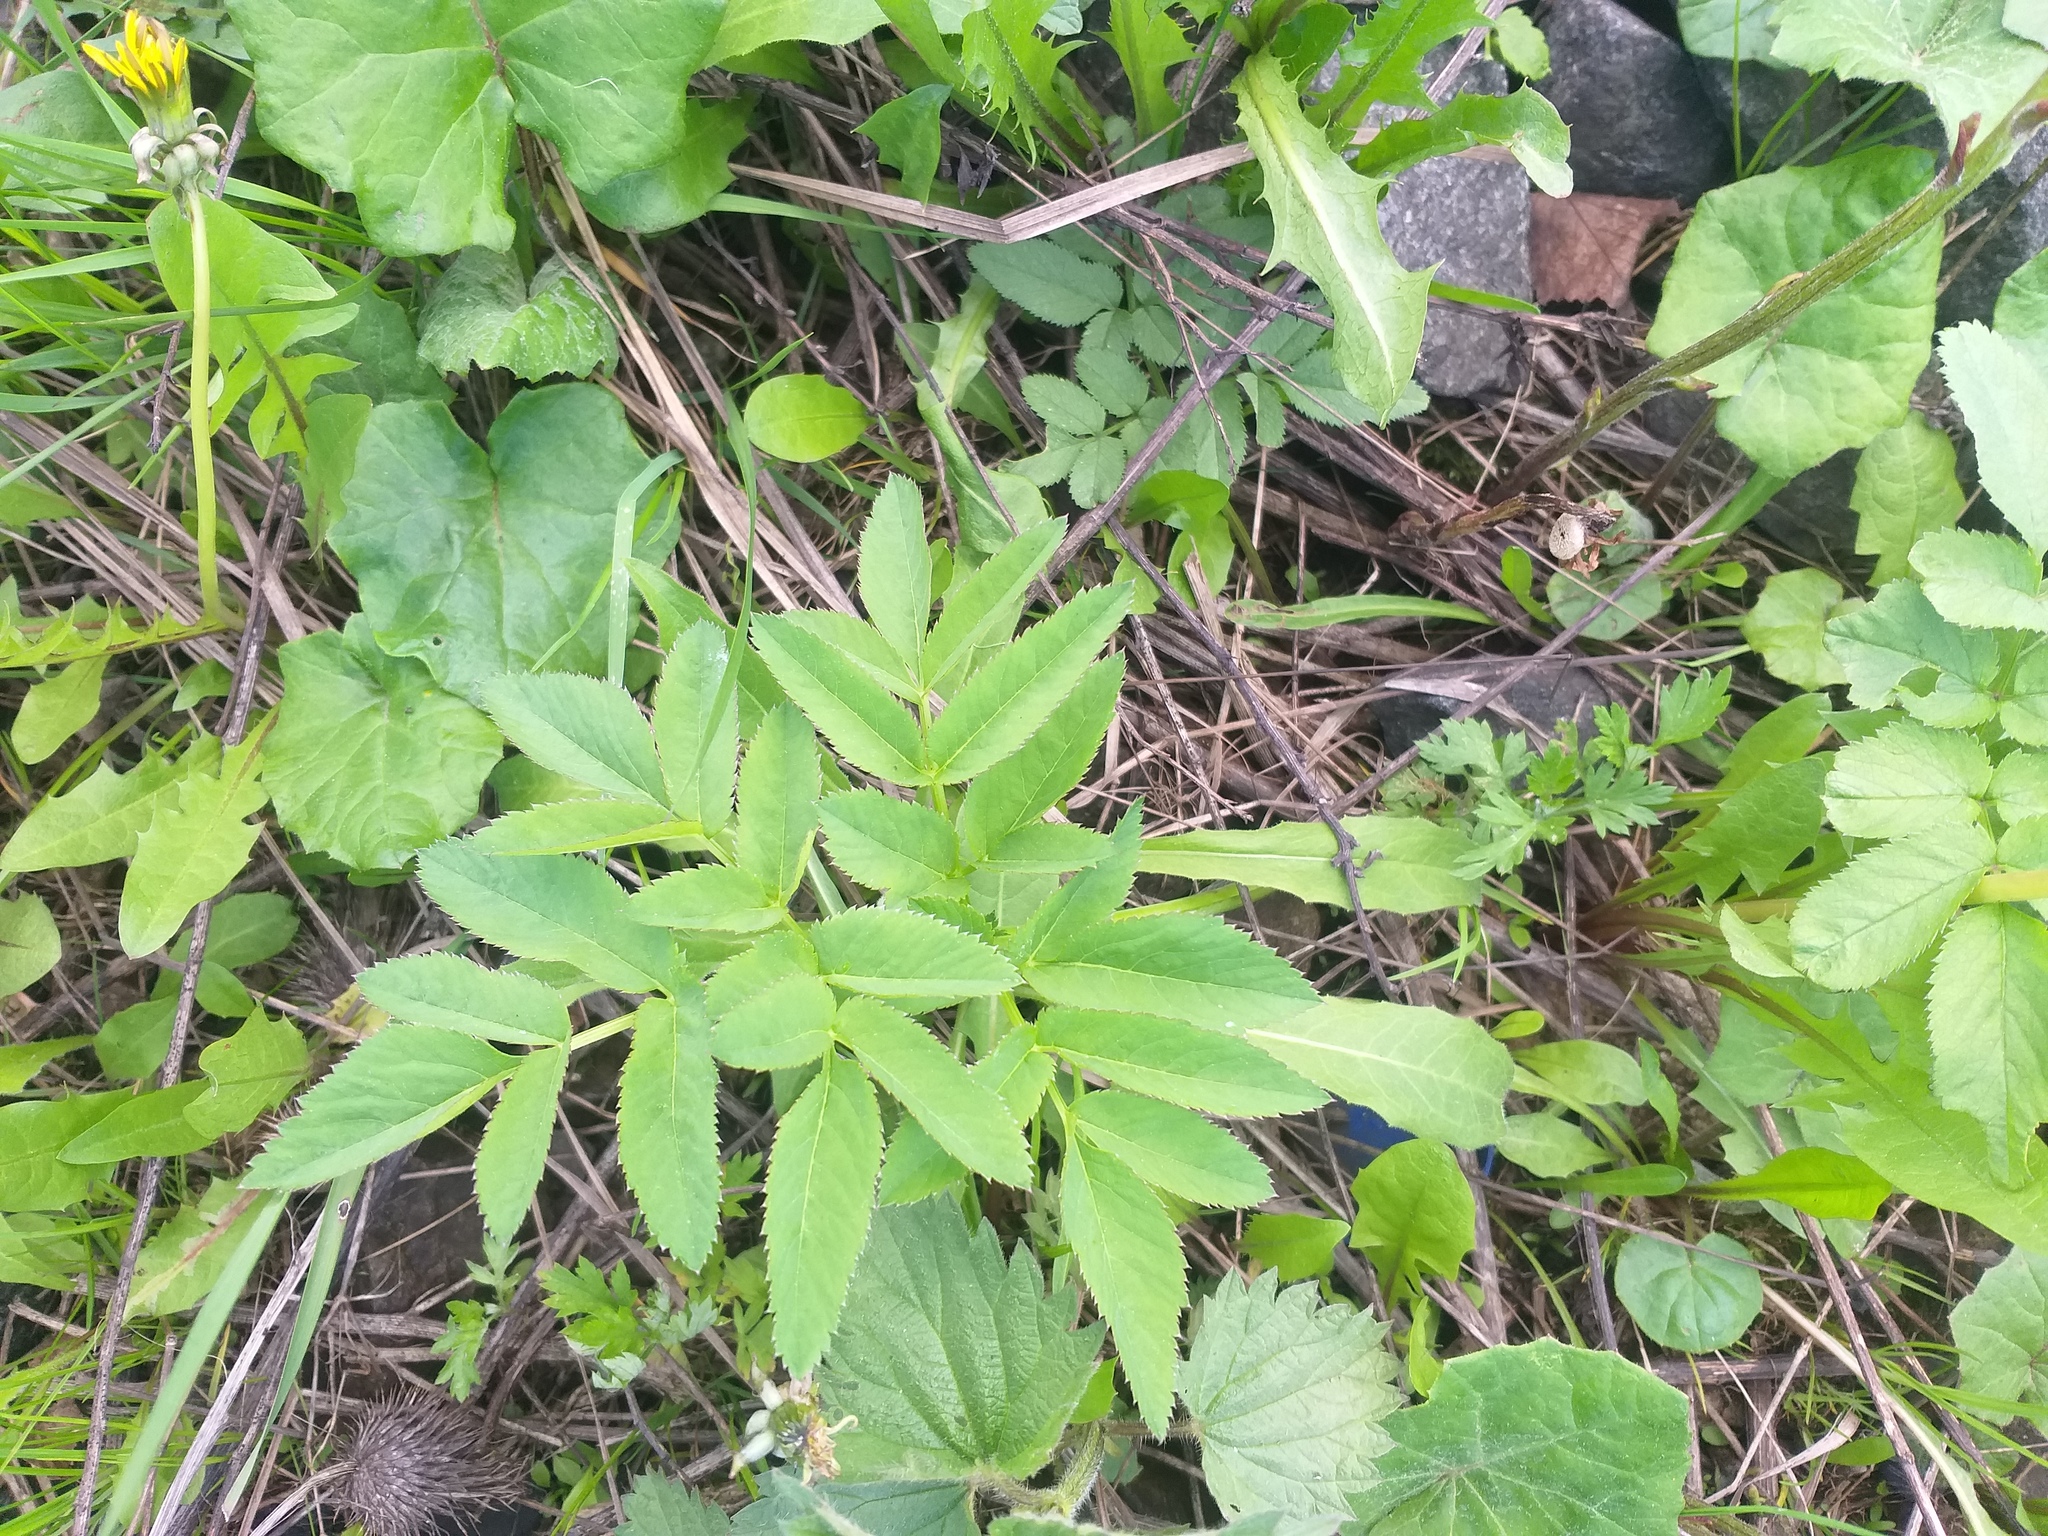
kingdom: Plantae
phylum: Tracheophyta
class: Magnoliopsida
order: Apiales
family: Apiaceae
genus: Angelica
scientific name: Angelica sylvestris
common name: Wild angelica
